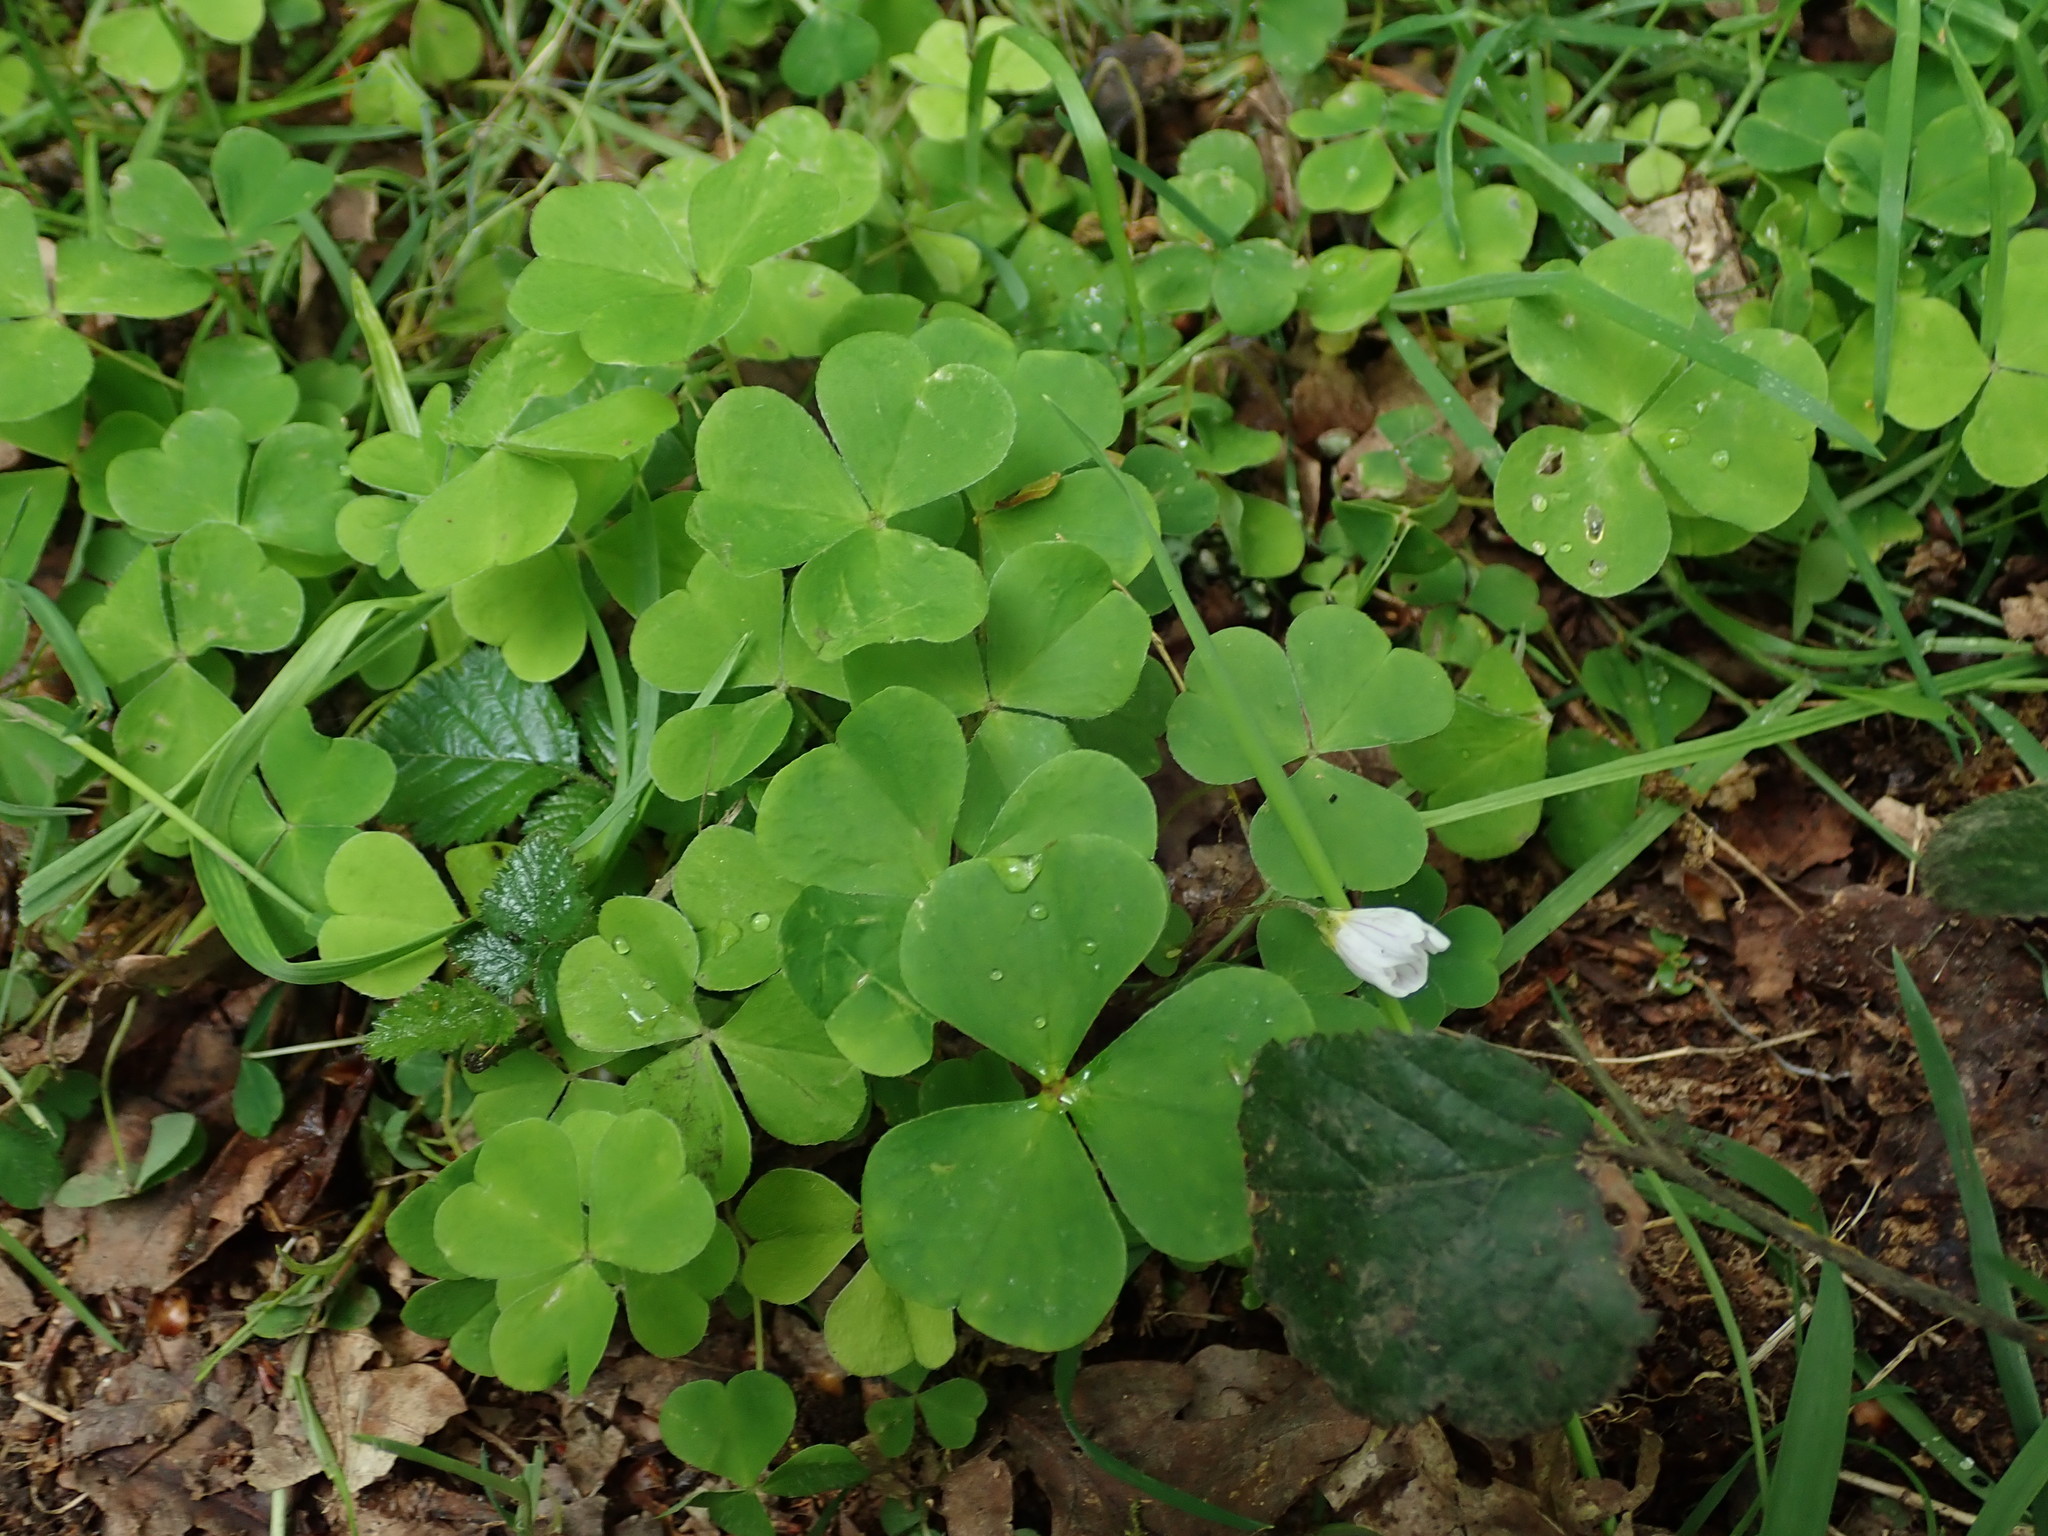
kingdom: Plantae
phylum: Tracheophyta
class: Magnoliopsida
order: Oxalidales
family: Oxalidaceae
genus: Oxalis
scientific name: Oxalis acetosella
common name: Wood-sorrel
